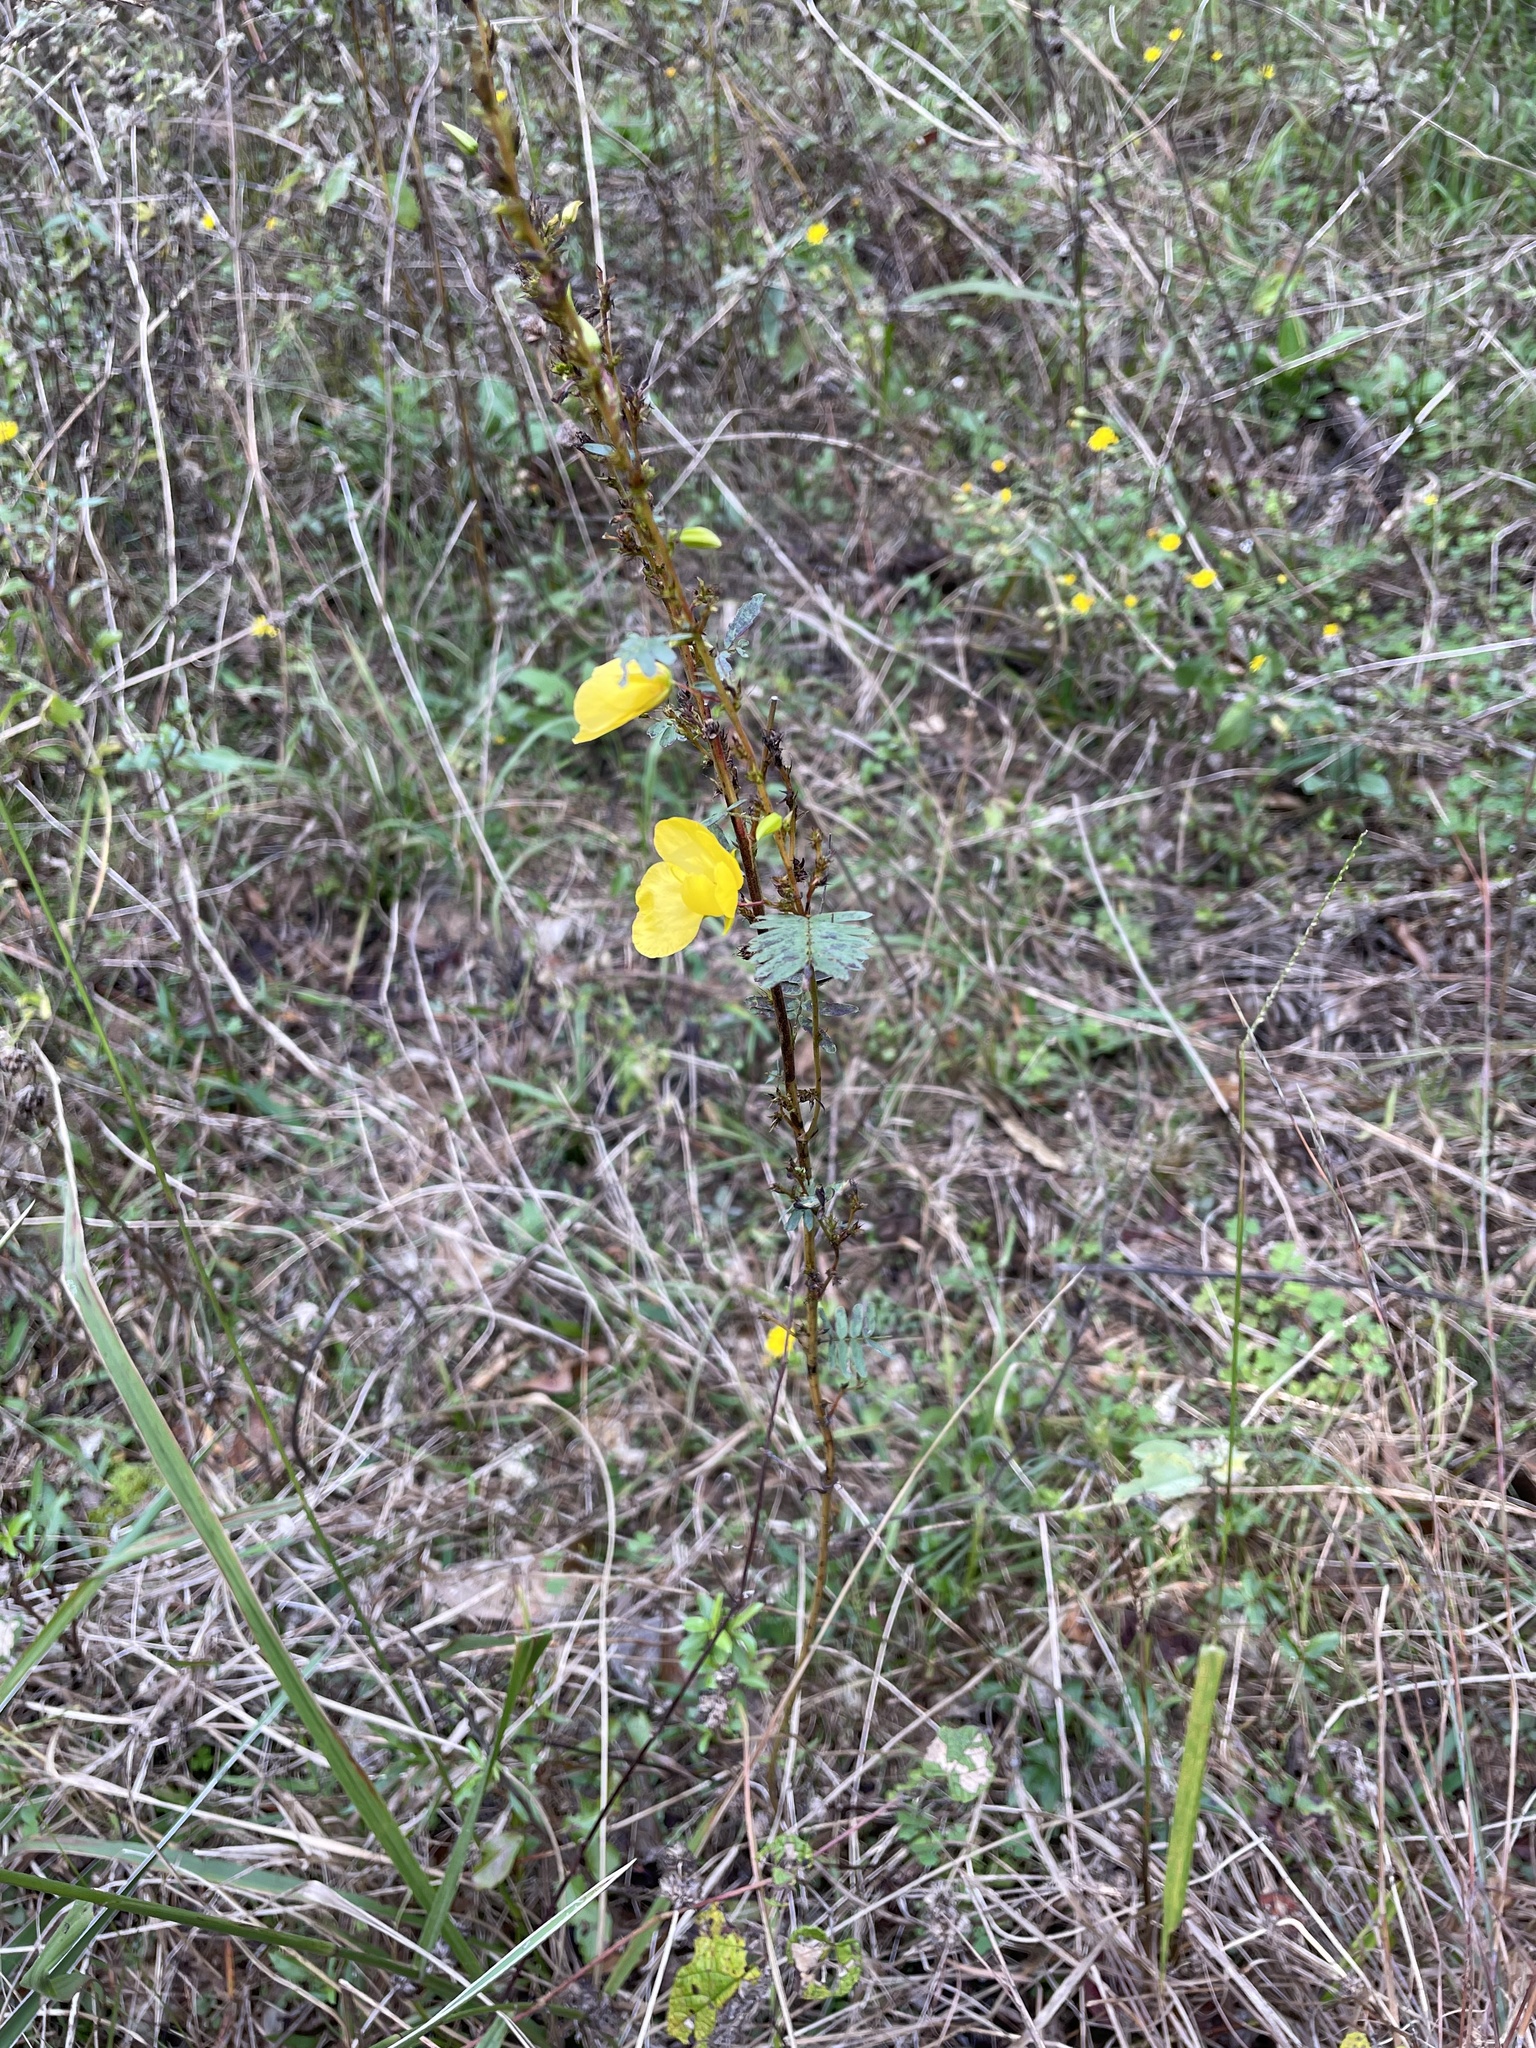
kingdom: Plantae
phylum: Tracheophyta
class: Magnoliopsida
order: Fabales
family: Fabaceae
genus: Chamaecrista
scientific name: Chamaecrista fasciculata
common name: Golden cassia
